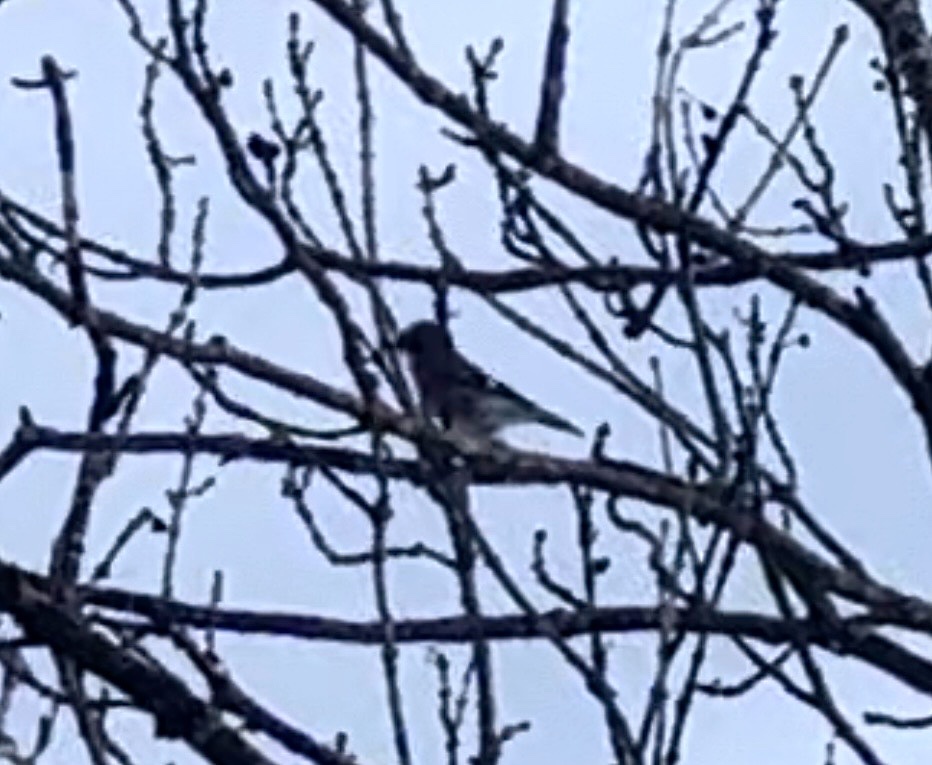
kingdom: Animalia
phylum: Chordata
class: Aves
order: Passeriformes
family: Corvidae
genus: Garrulus
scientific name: Garrulus glandarius
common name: Eurasian jay
